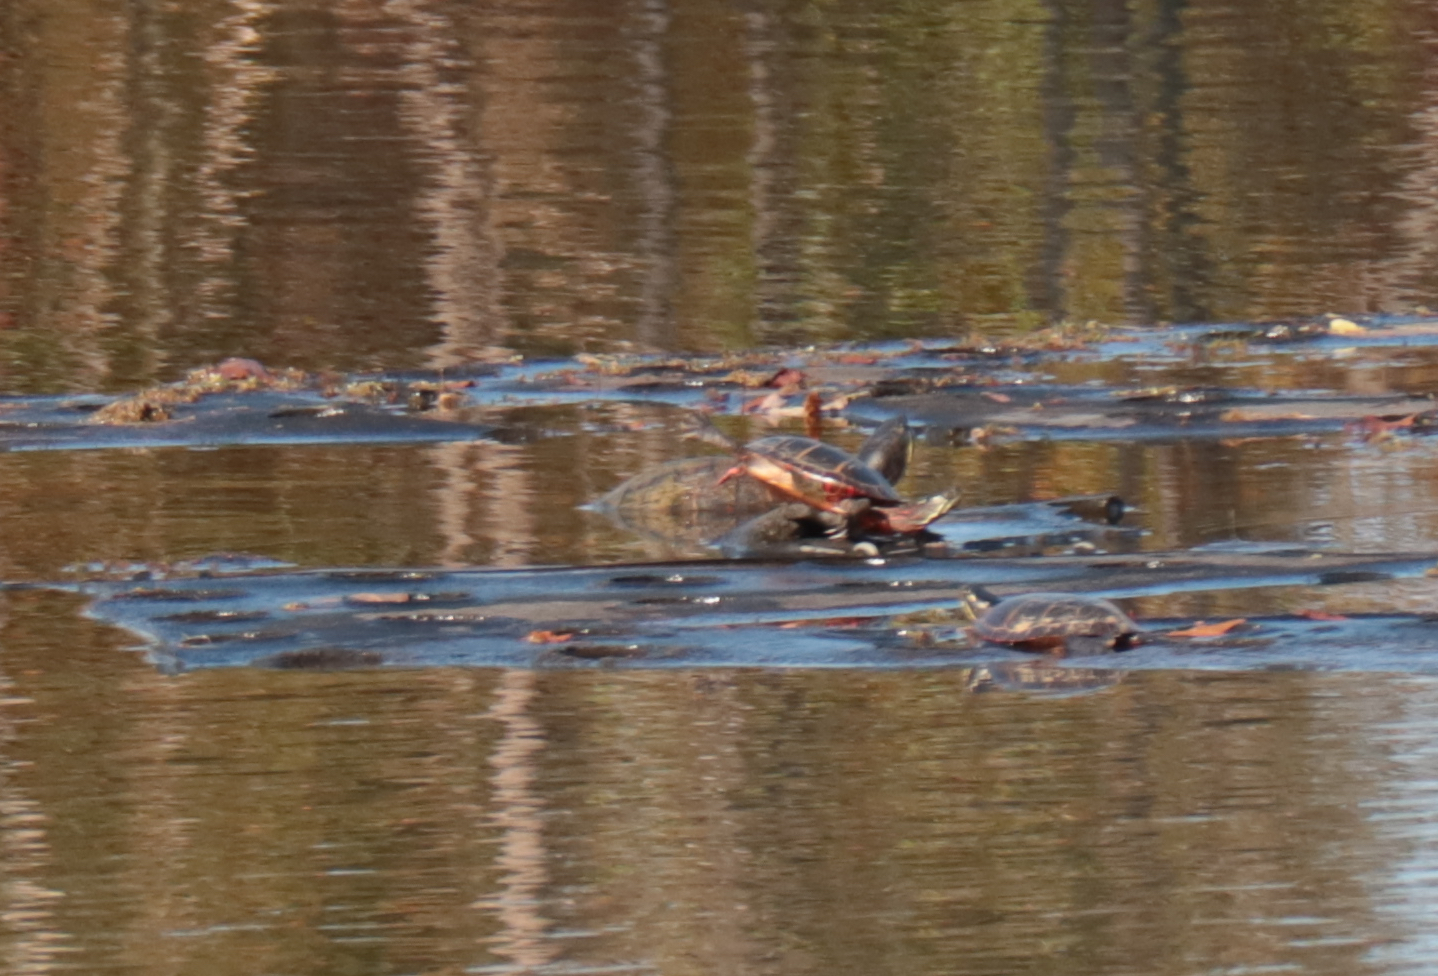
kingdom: Animalia
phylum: Chordata
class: Testudines
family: Emydidae
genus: Chrysemys
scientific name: Chrysemys picta
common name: Painted turtle
